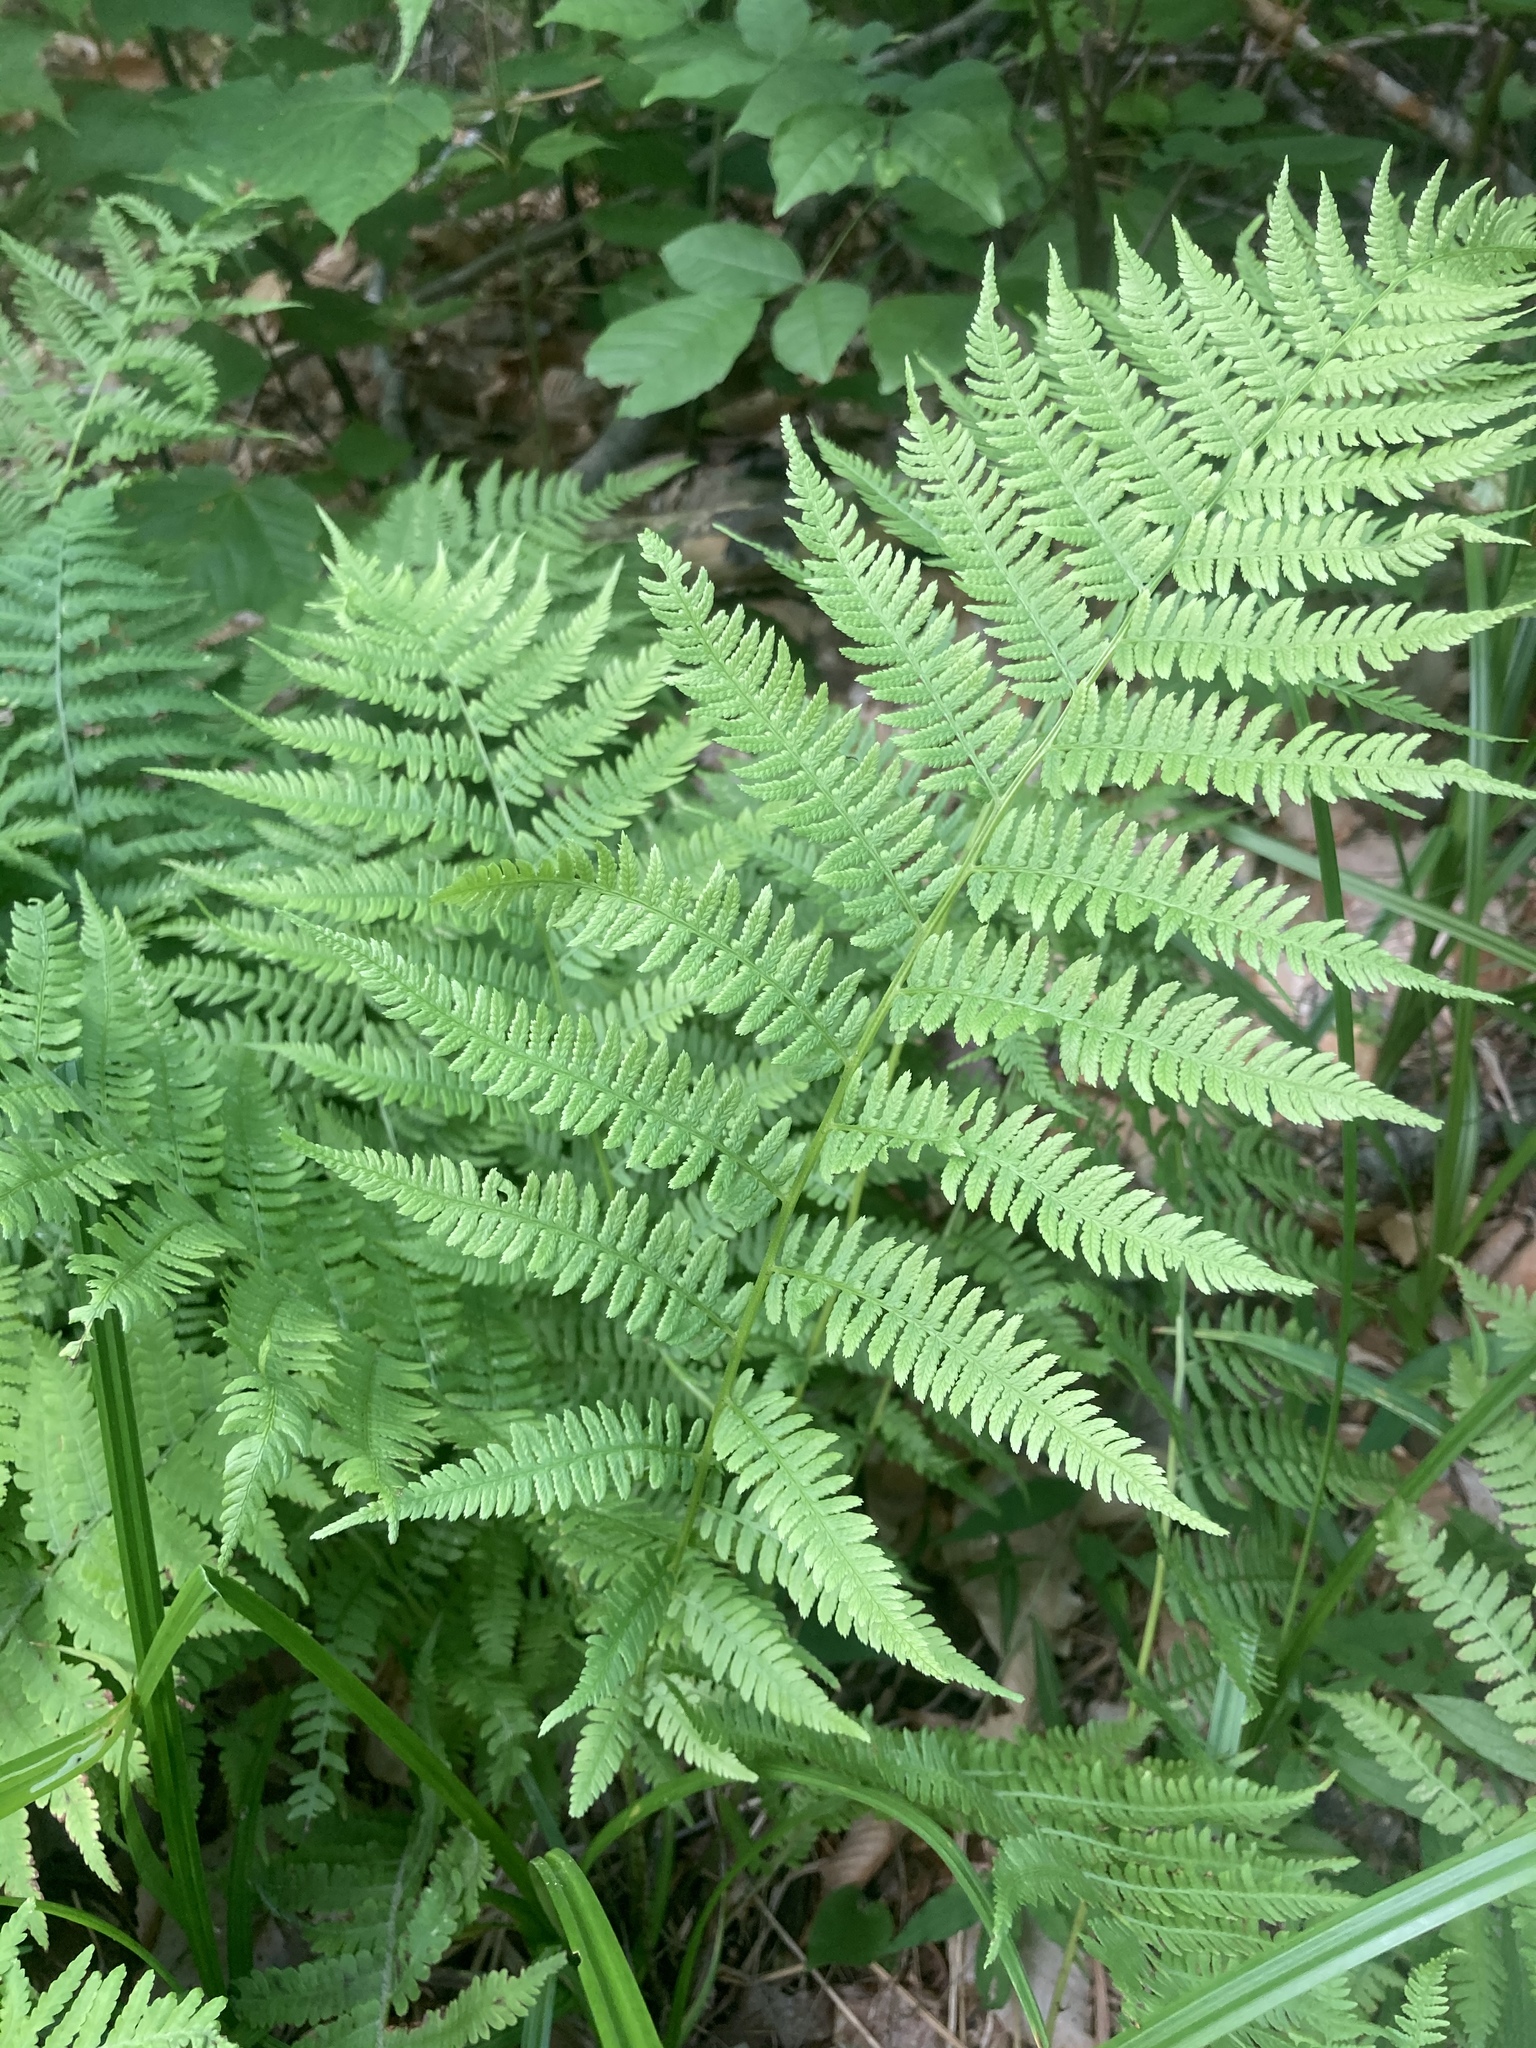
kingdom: Plantae
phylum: Tracheophyta
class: Polypodiopsida
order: Polypodiales
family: Athyriaceae
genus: Athyrium
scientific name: Athyrium angustum
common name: Northern lady fern
